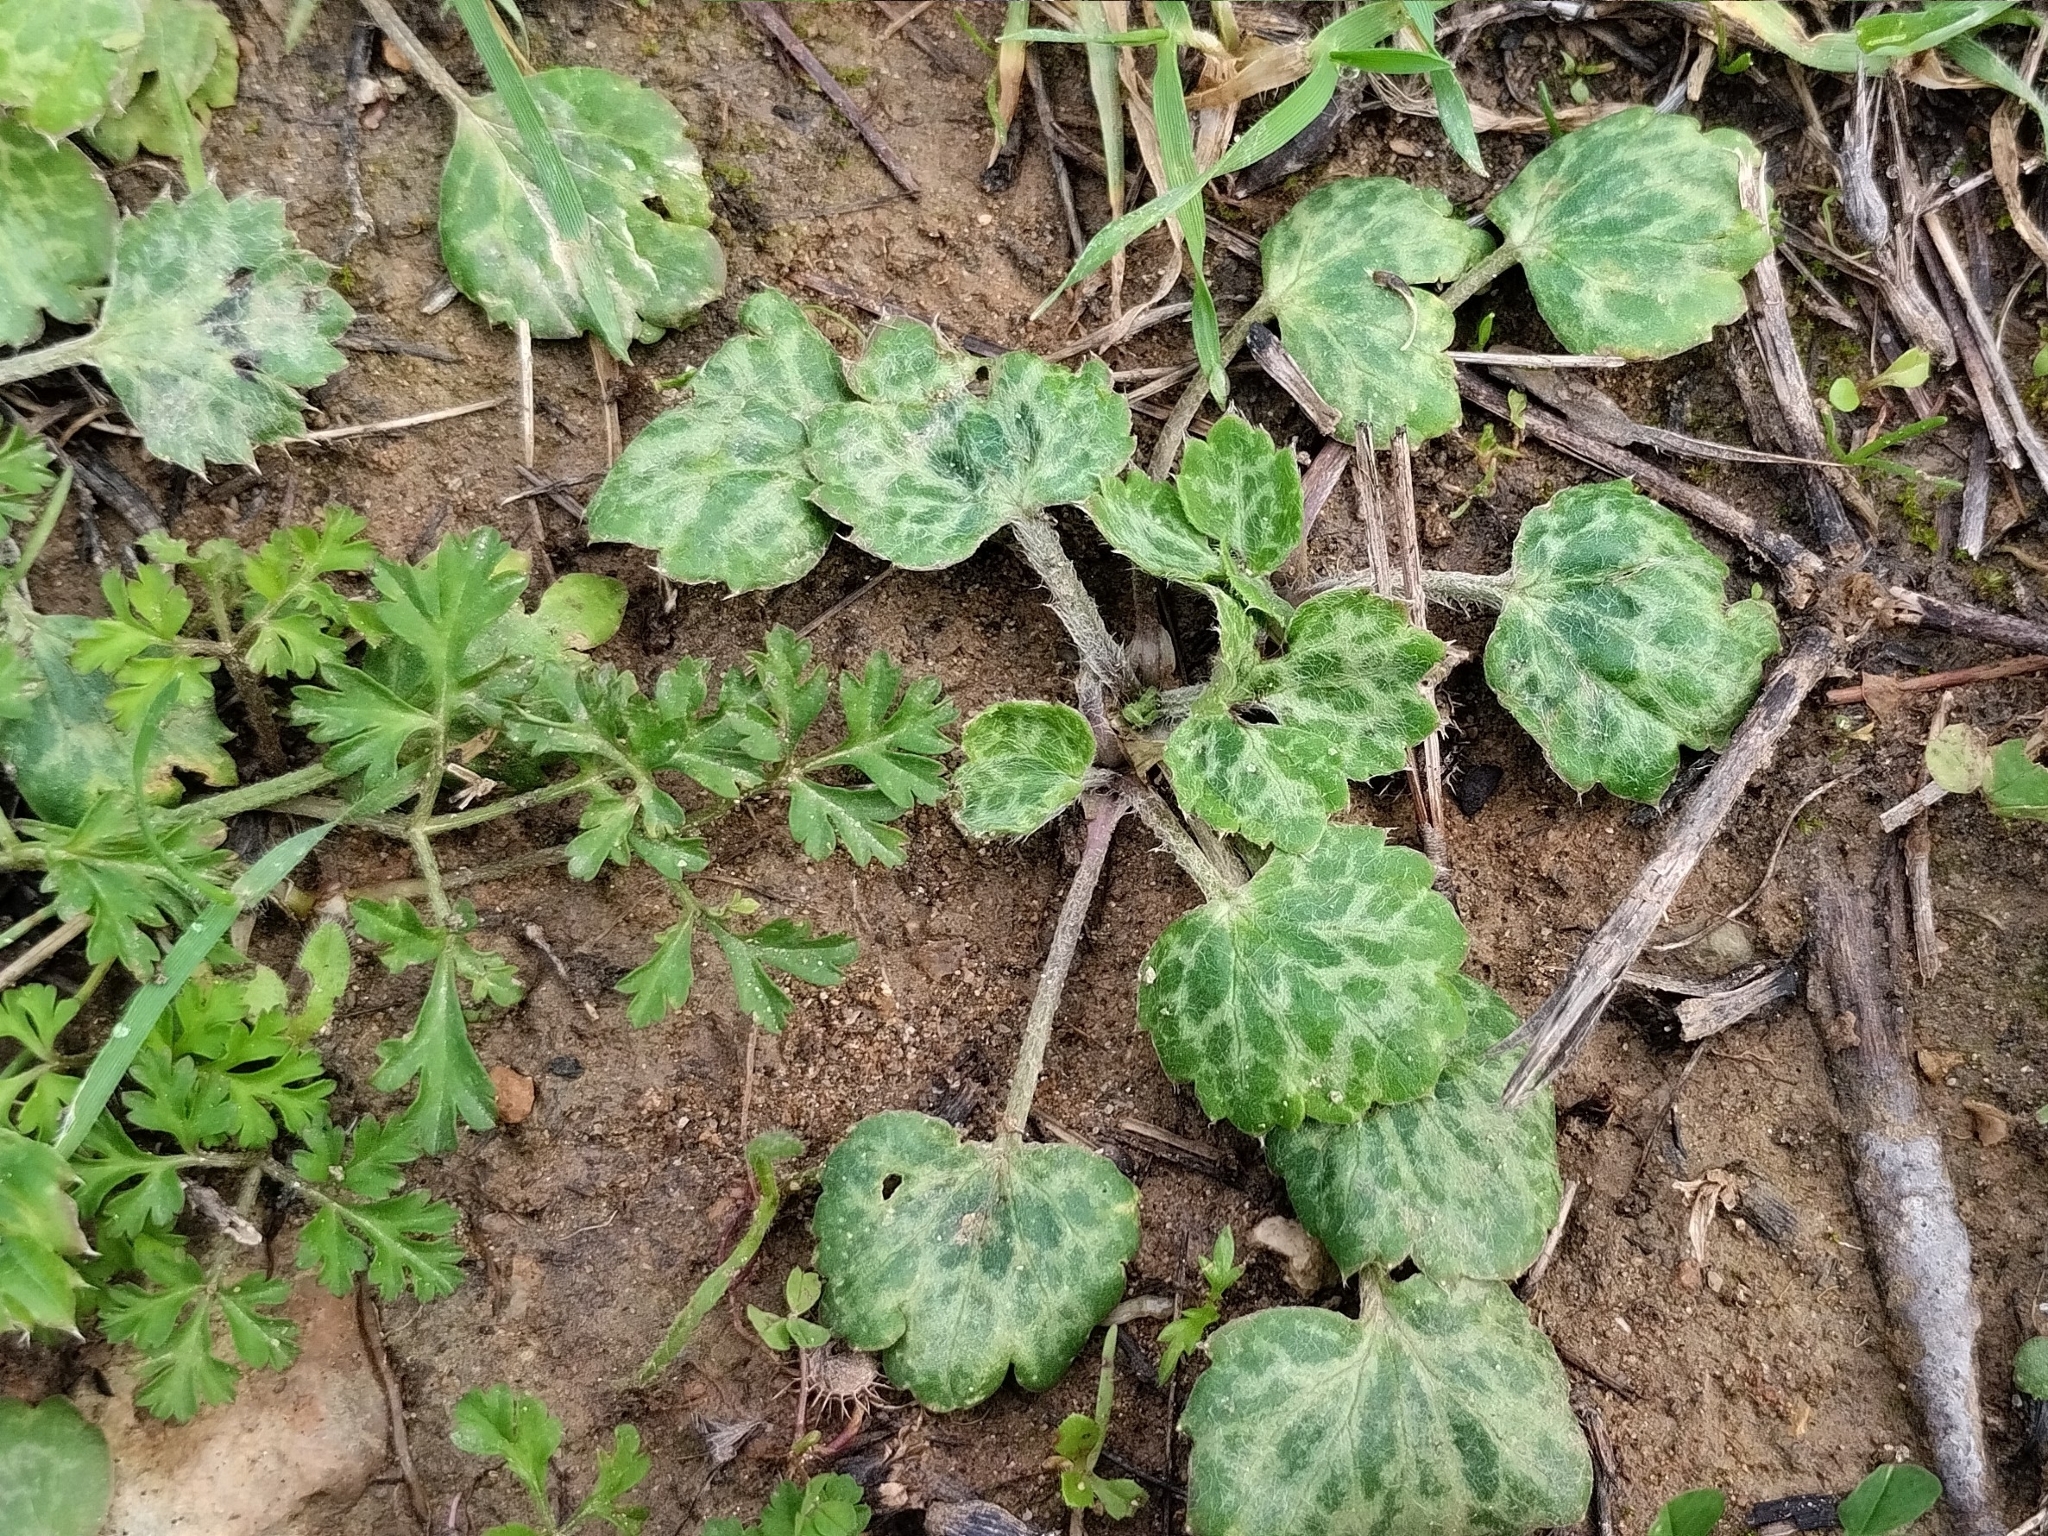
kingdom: Plantae
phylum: Tracheophyta
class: Magnoliopsida
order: Ranunculales
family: Ranunculaceae
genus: Ranunculus
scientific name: Ranunculus asiaticus
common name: Persian buttercup
